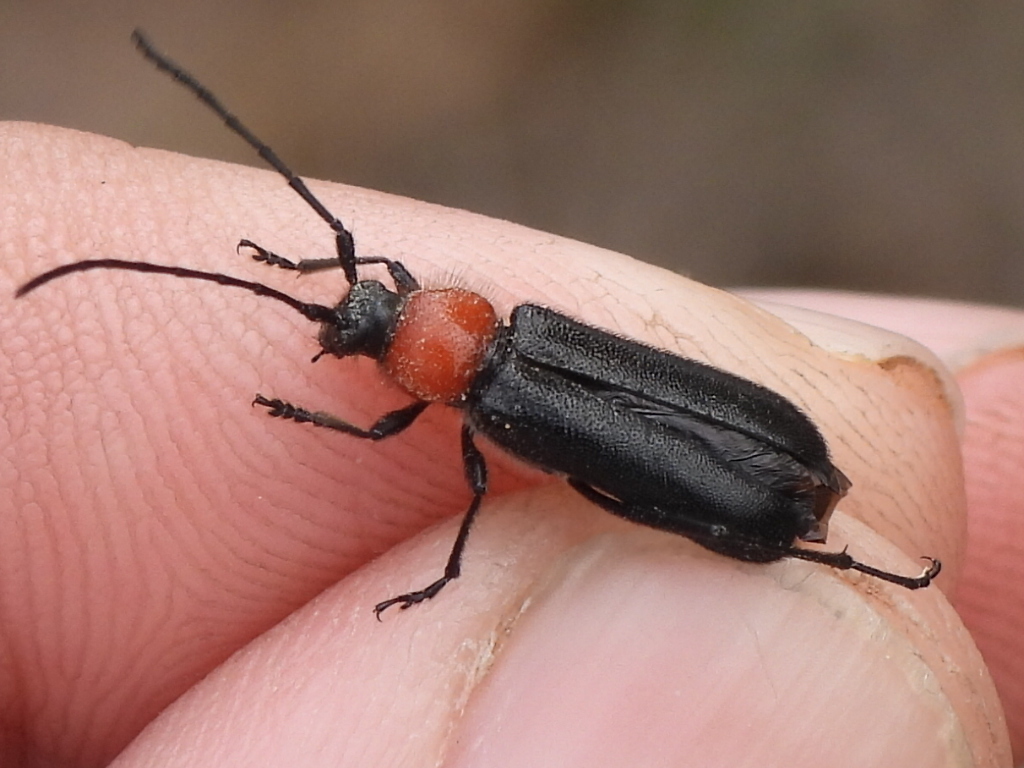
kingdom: Animalia
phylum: Arthropoda
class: Insecta
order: Coleoptera
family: Cerambycidae
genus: Batyle
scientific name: Batyle ignicollis
